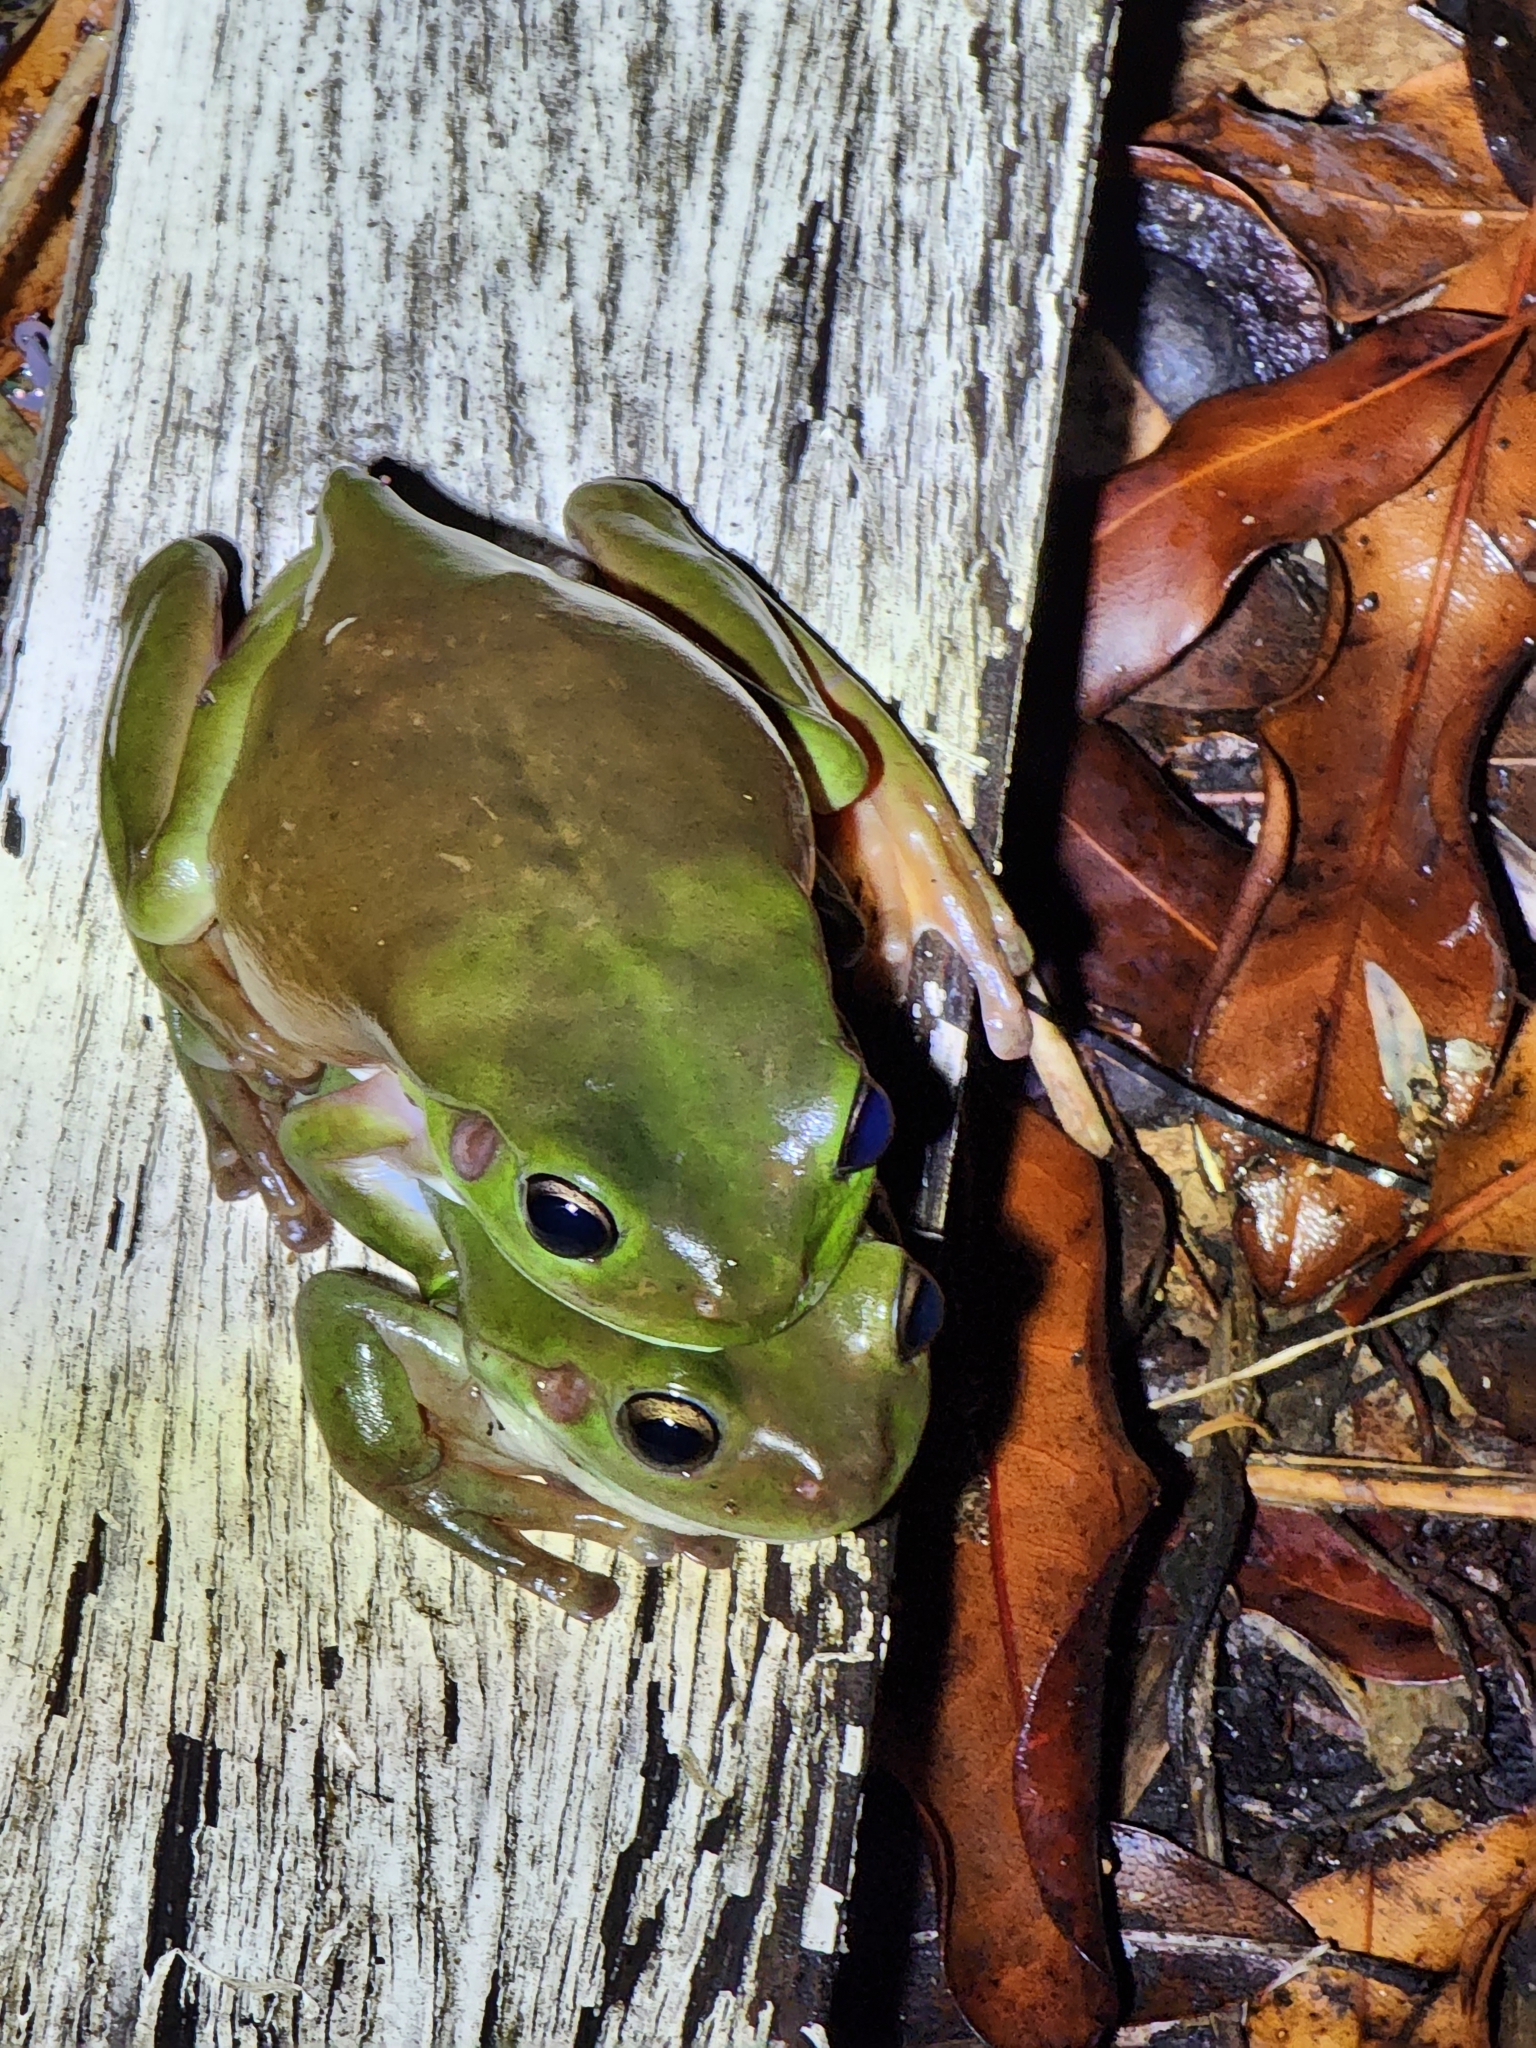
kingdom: Animalia
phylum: Chordata
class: Amphibia
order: Anura
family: Pelodryadidae
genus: Ranoidea
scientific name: Ranoidea caerulea
